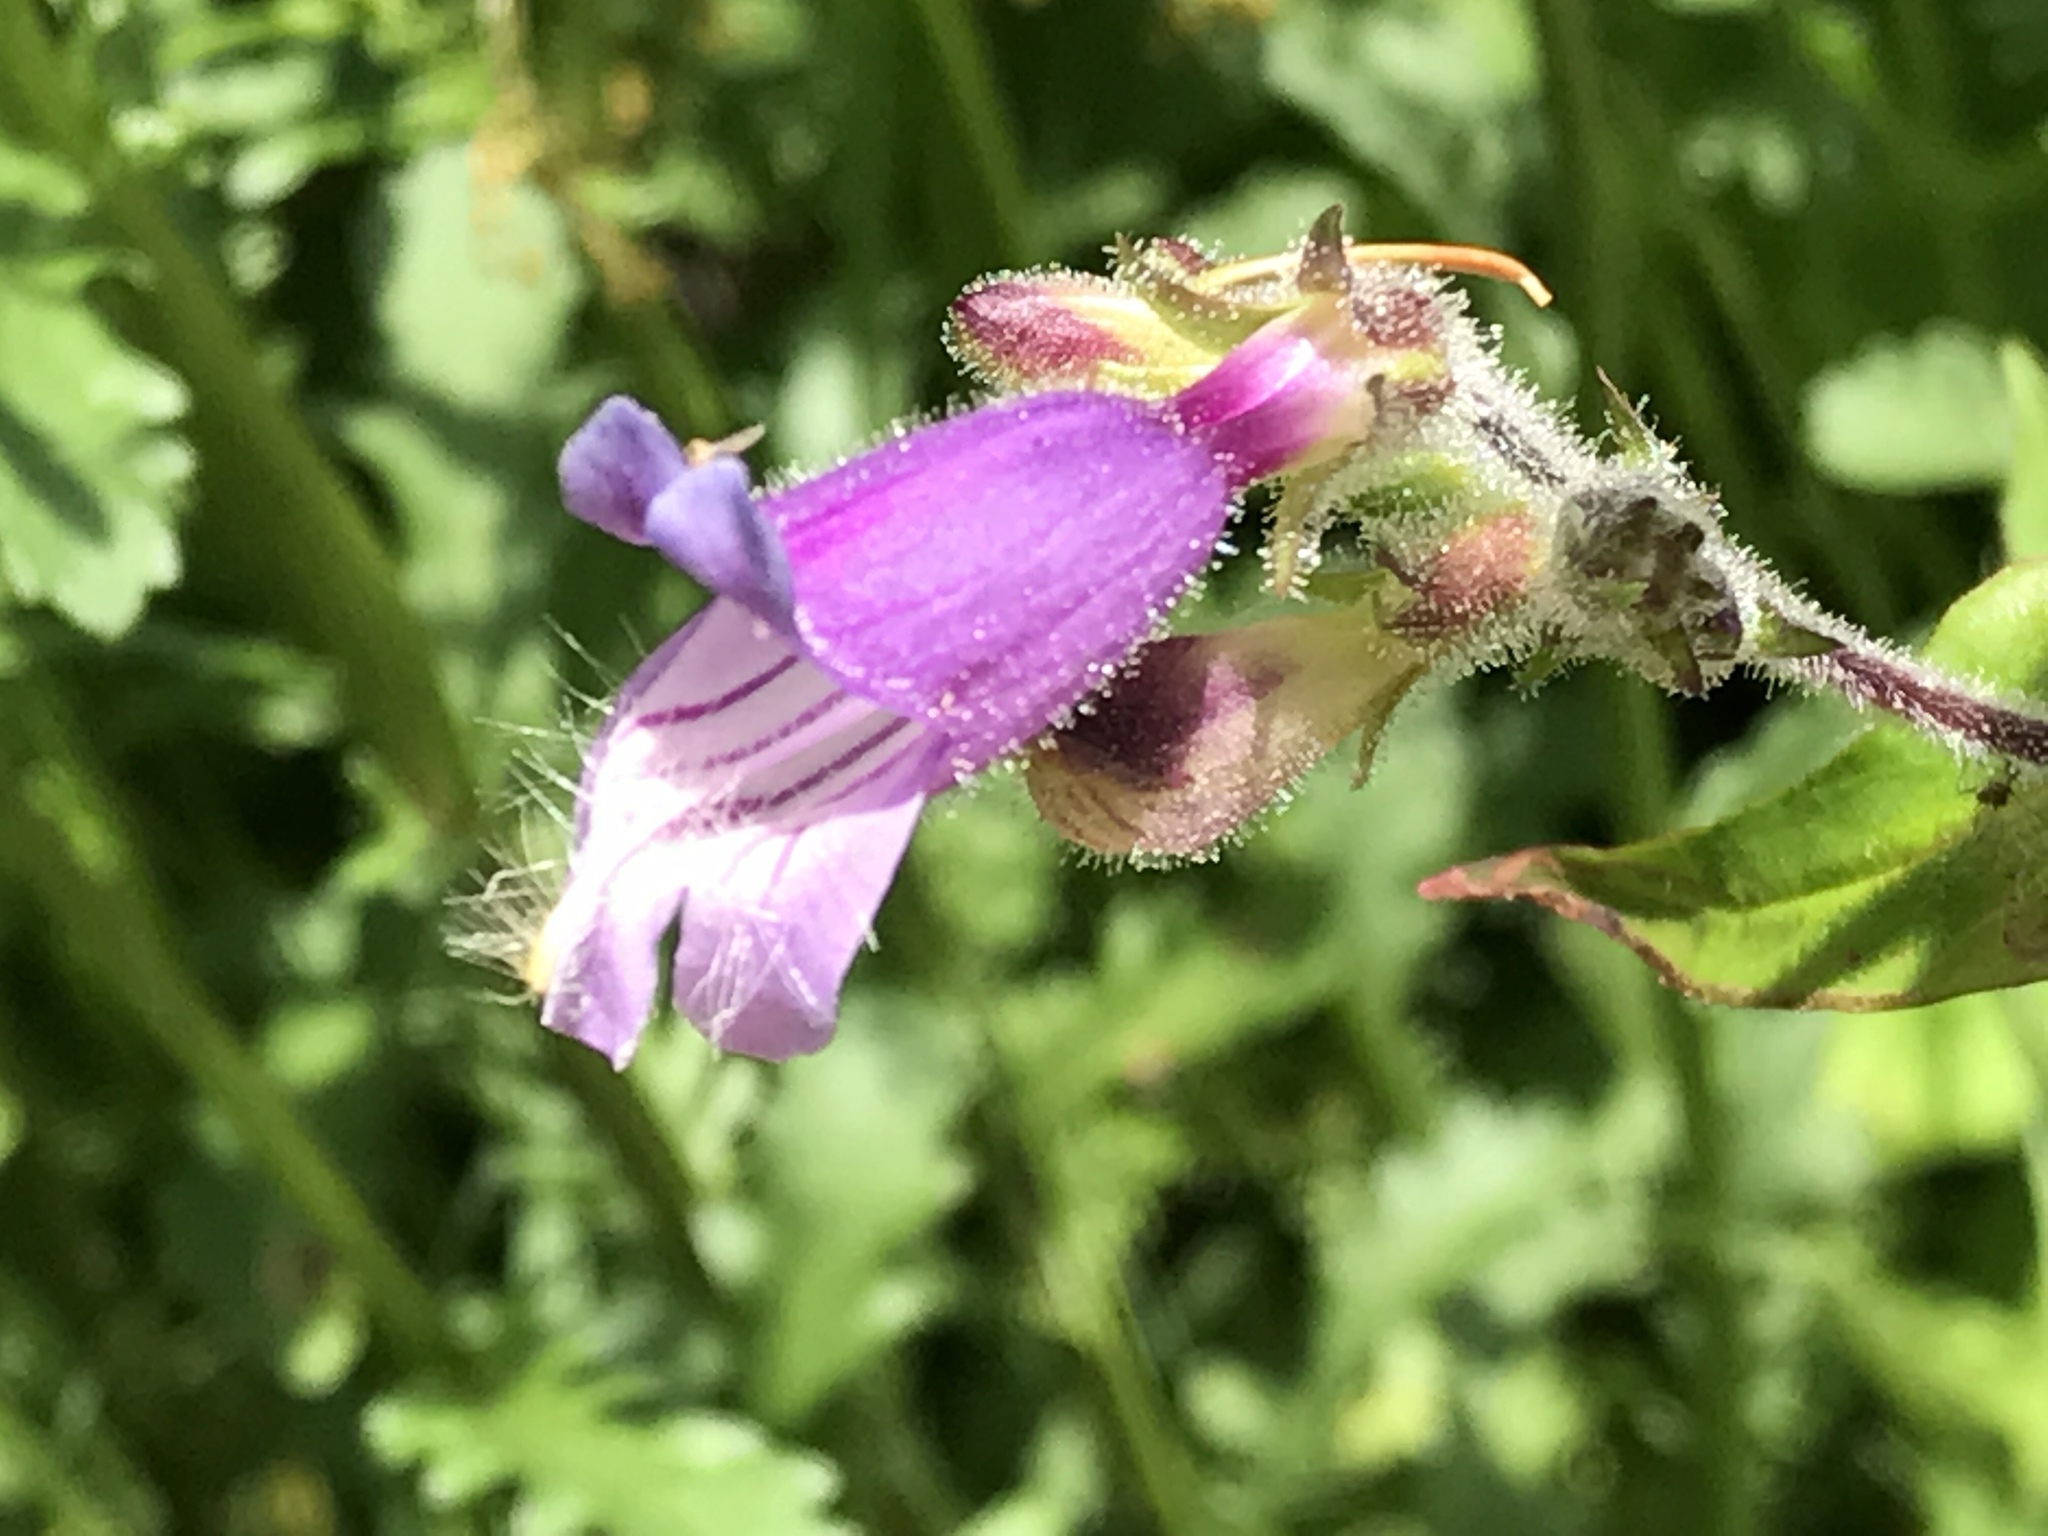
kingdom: Plantae
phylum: Tracheophyta
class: Magnoliopsida
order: Lamiales
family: Plantaginaceae
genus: Penstemon
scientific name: Penstemon rattanii
